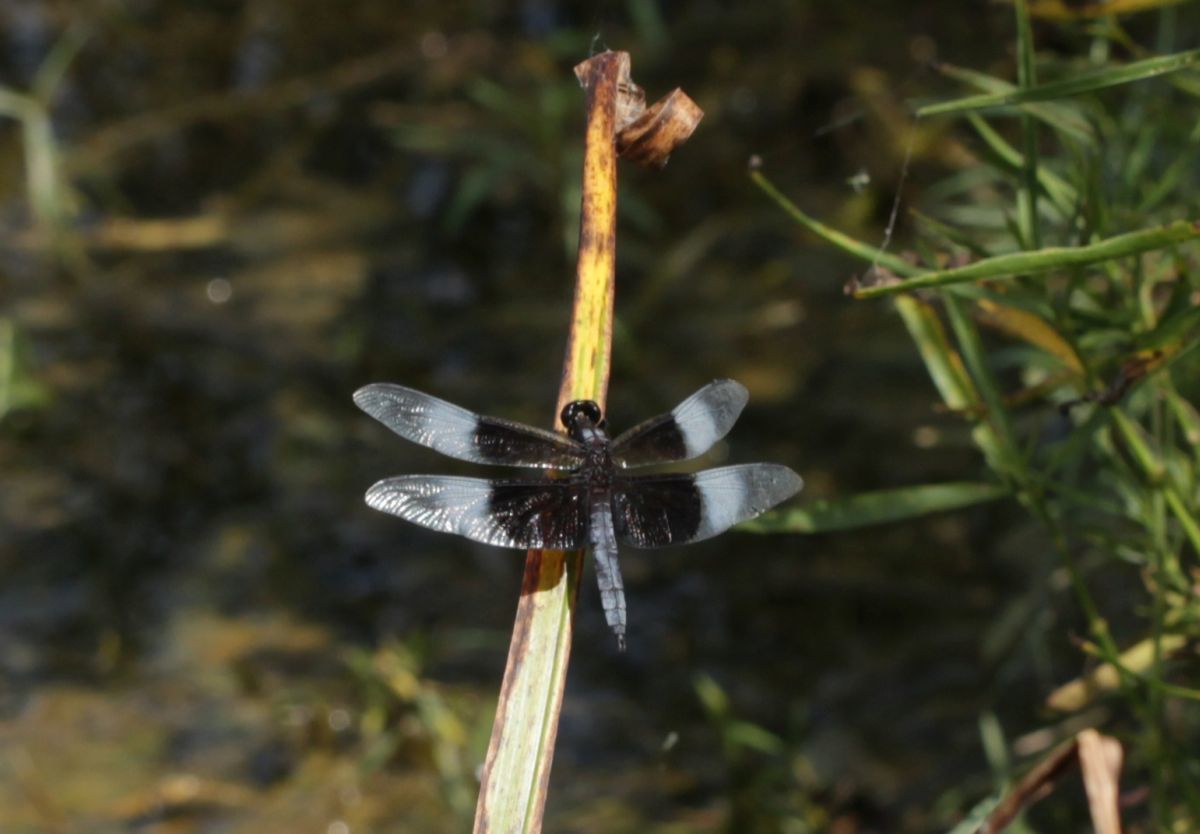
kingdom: Animalia
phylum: Arthropoda
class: Insecta
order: Odonata
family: Libellulidae
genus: Libellula
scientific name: Libellula luctuosa
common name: Widow skimmer
